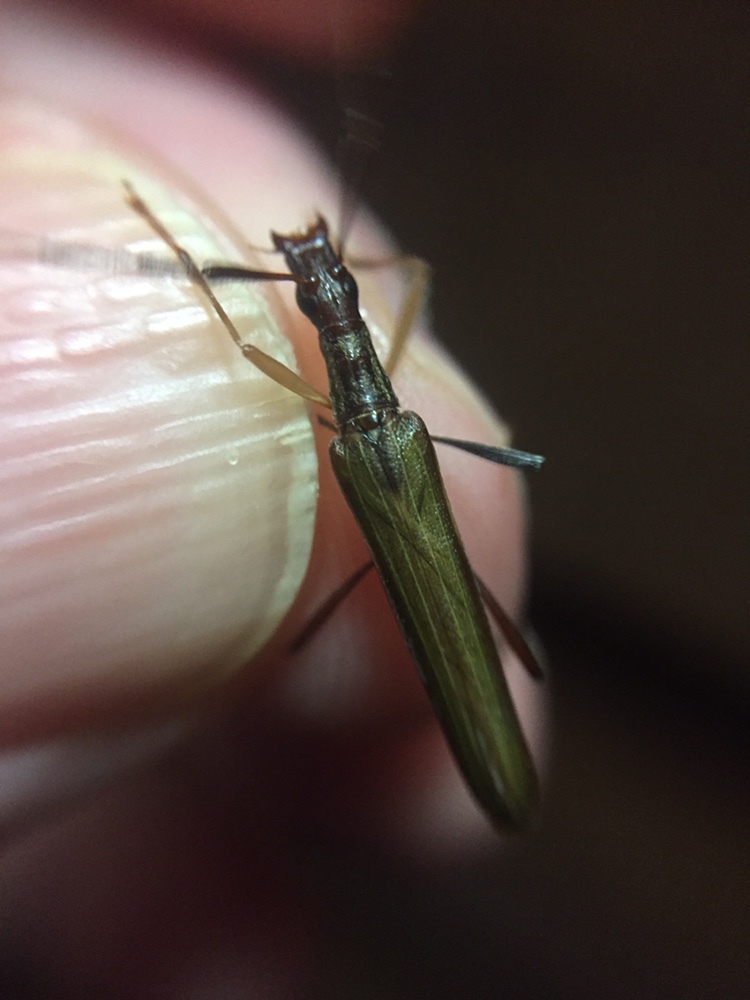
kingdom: Animalia
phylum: Arthropoda
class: Insecta
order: Coleoptera
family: Cerambycidae
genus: Stenopotes
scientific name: Stenopotes pallidus
